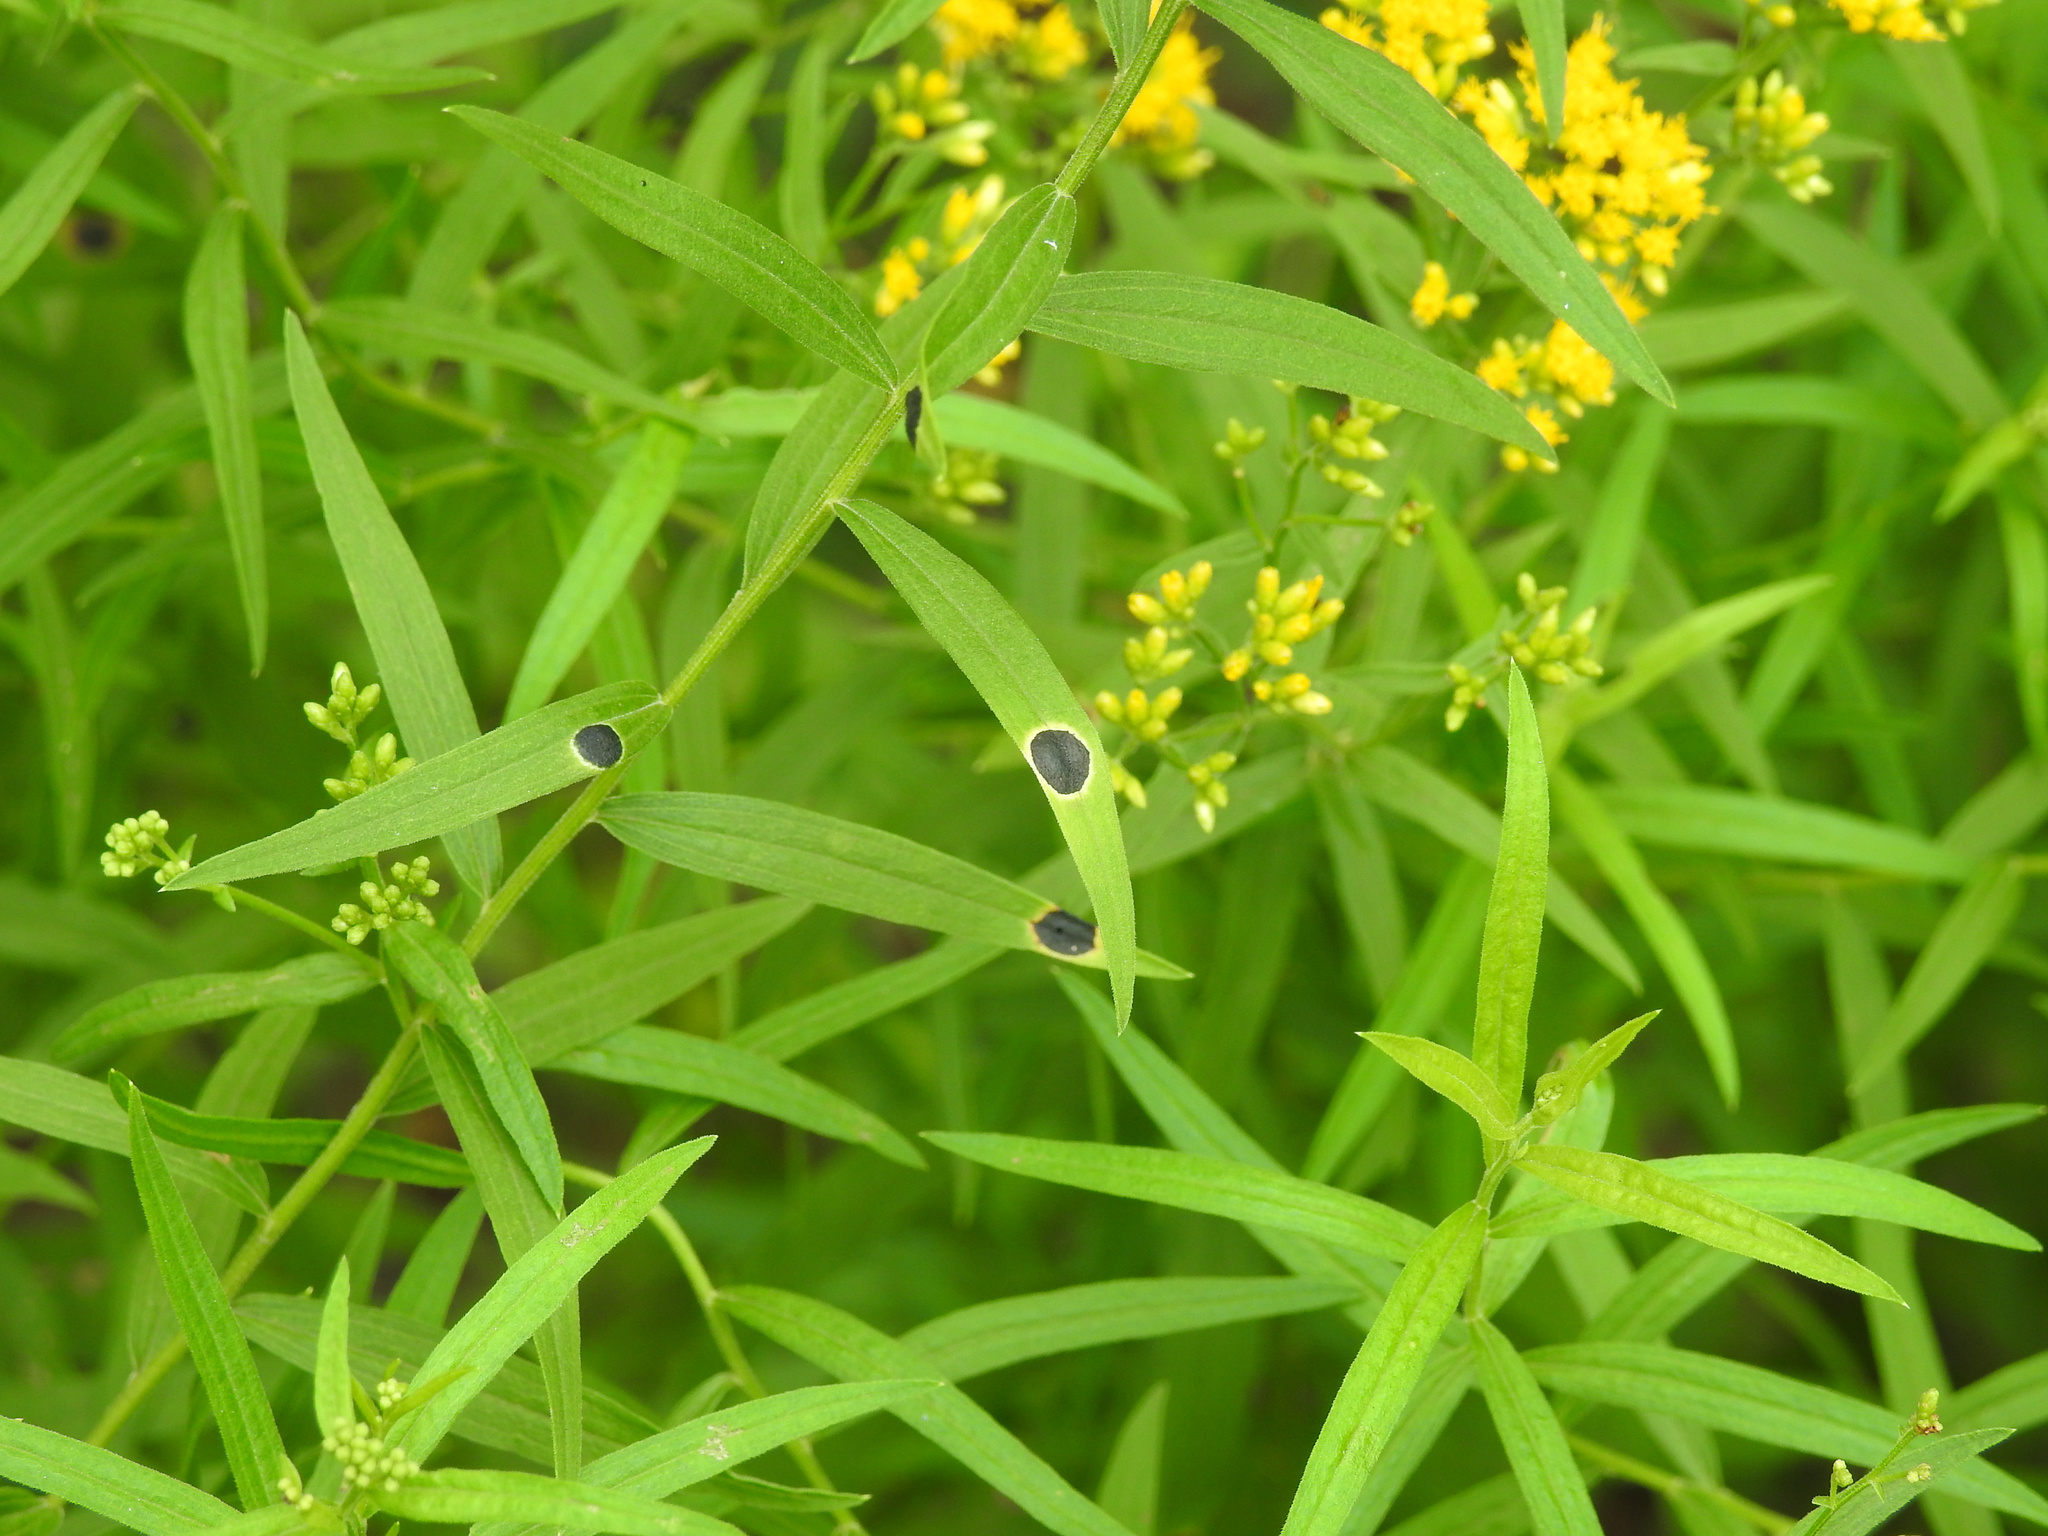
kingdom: Animalia
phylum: Arthropoda
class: Insecta
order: Diptera
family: Cecidomyiidae
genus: Asteromyia
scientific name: Asteromyia euthamiae
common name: Euthamia leaf gall midge
